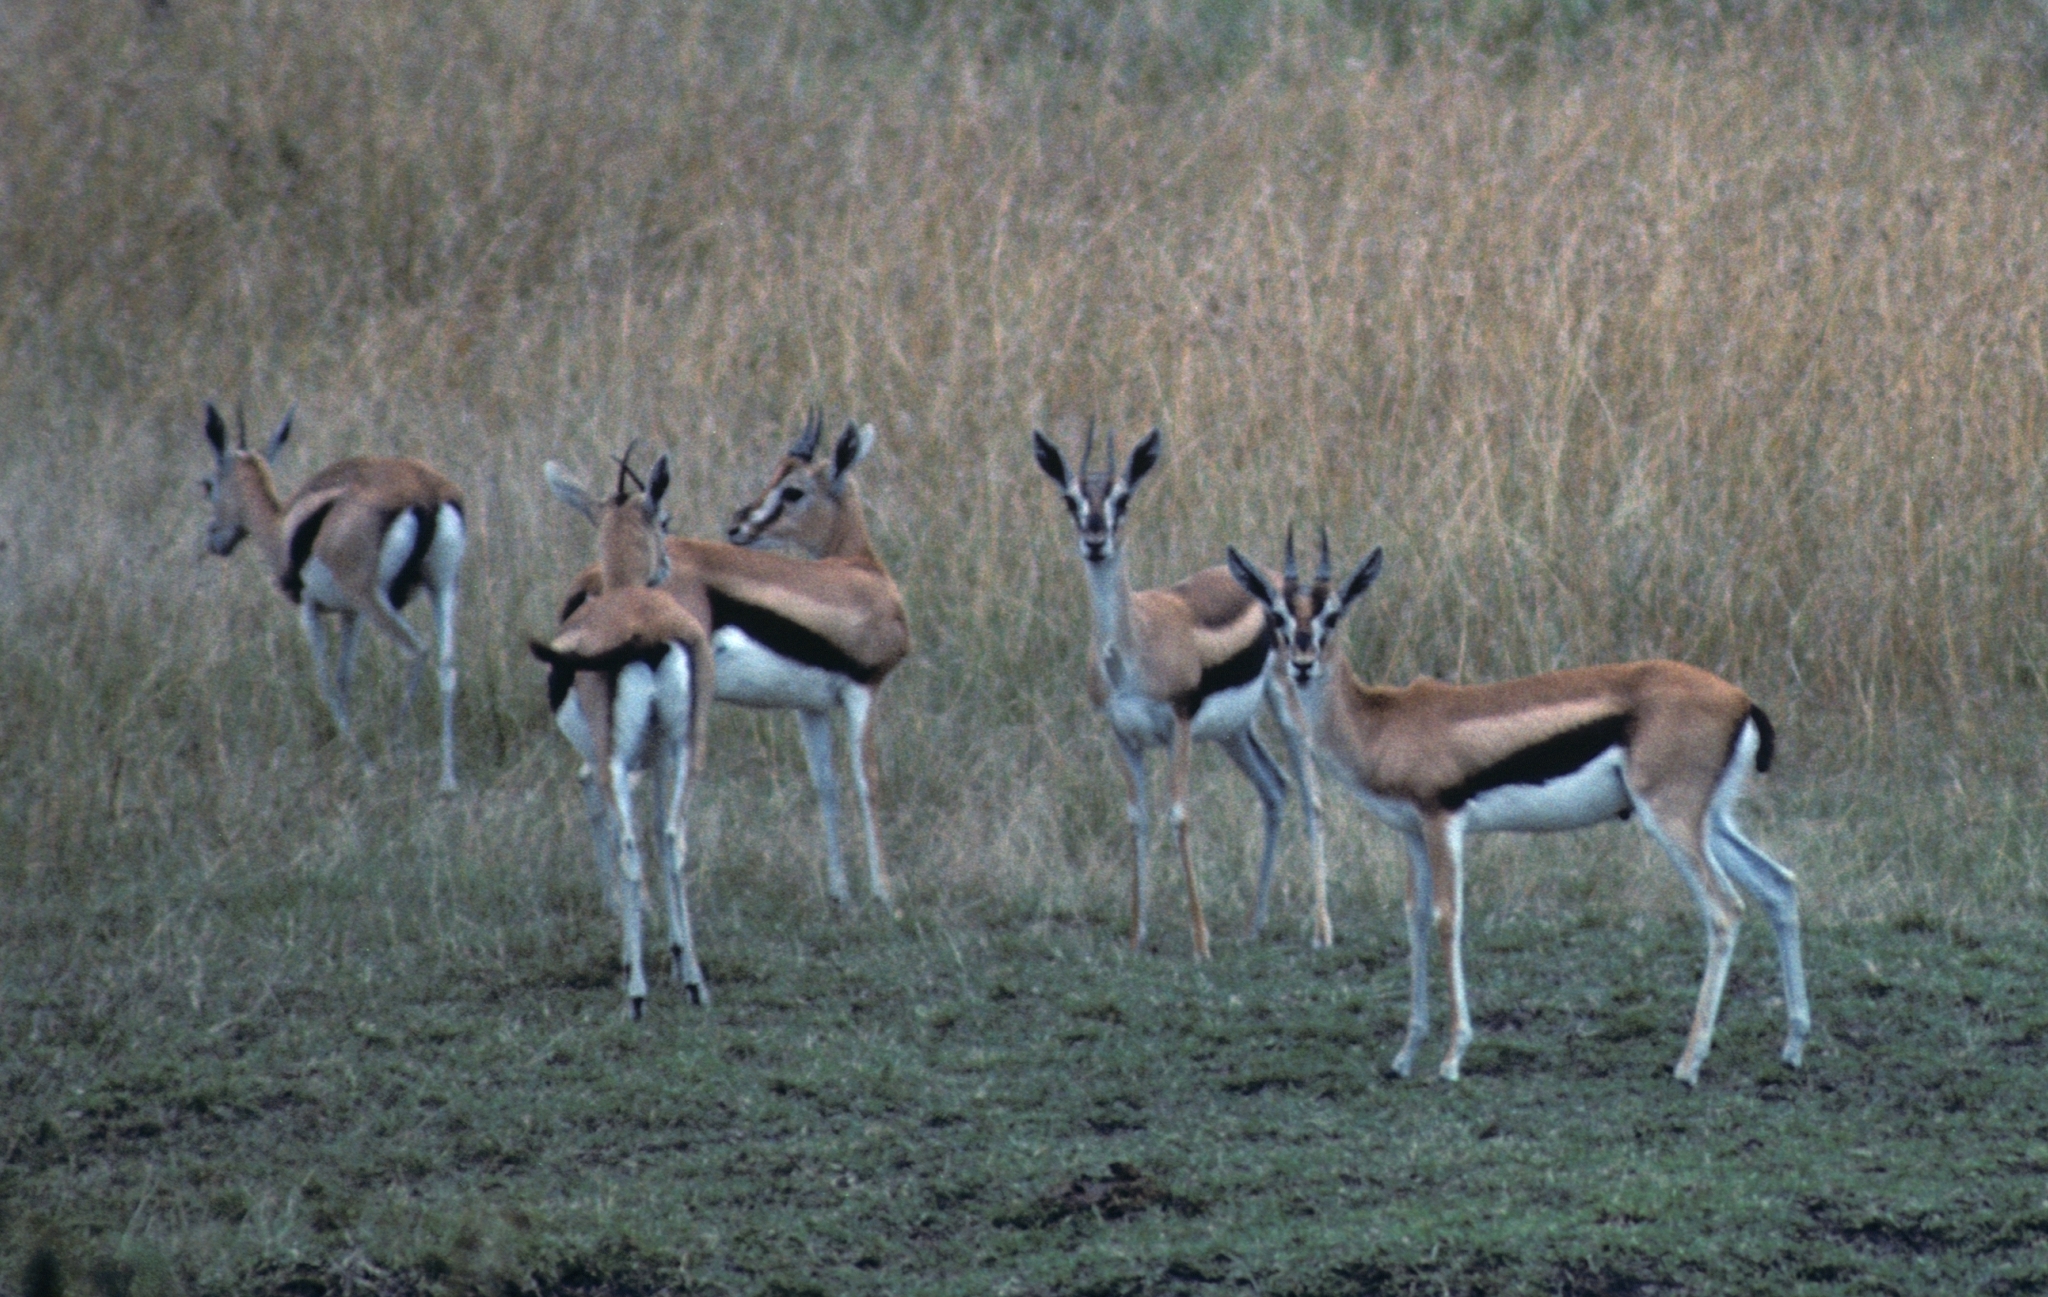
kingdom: Animalia
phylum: Chordata
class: Mammalia
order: Artiodactyla
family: Bovidae
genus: Eudorcas
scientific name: Eudorcas thomsonii
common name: Thomson's gazelle
